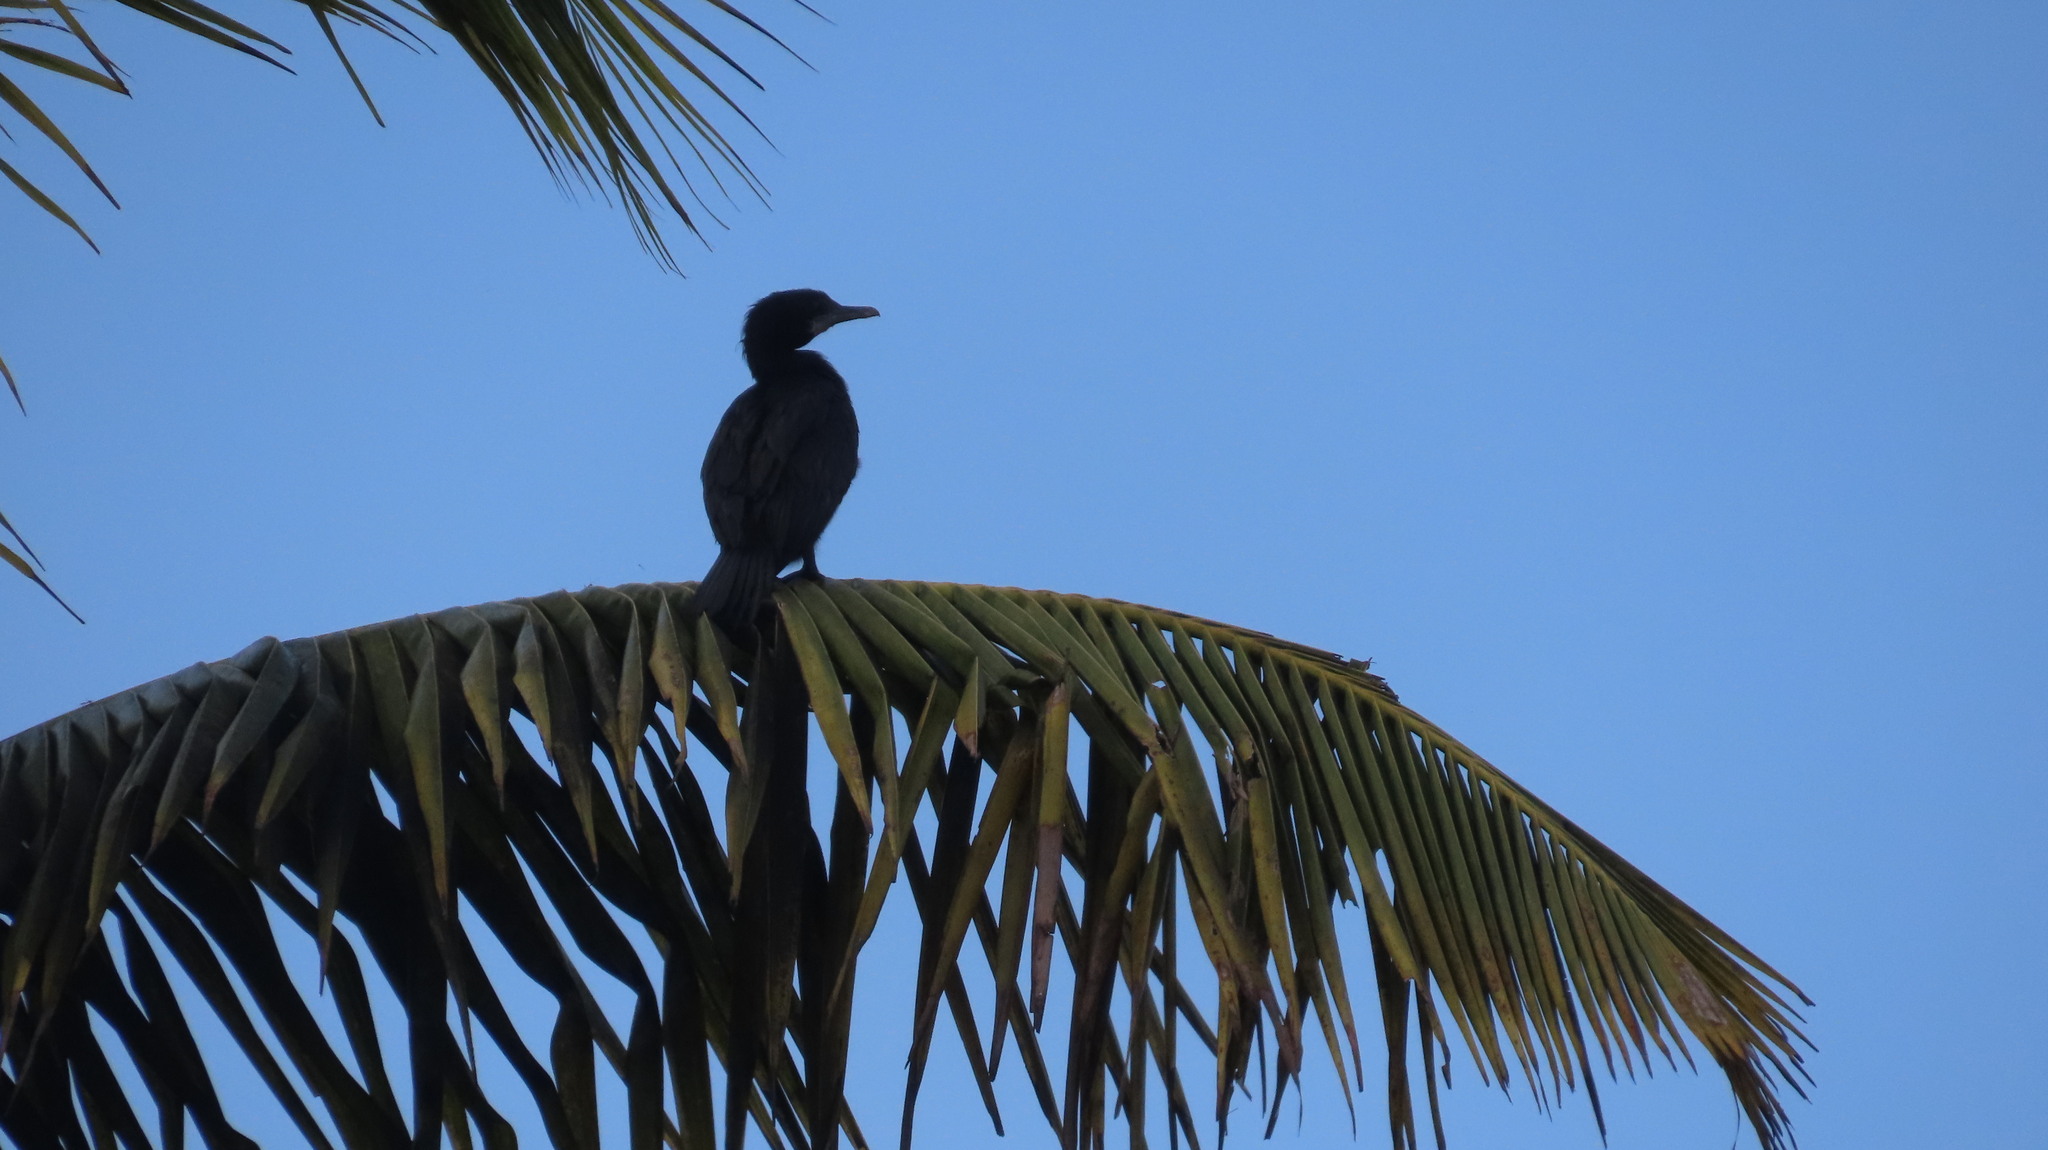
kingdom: Animalia
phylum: Chordata
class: Aves
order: Suliformes
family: Phalacrocoracidae
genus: Microcarbo
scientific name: Microcarbo niger
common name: Little cormorant
